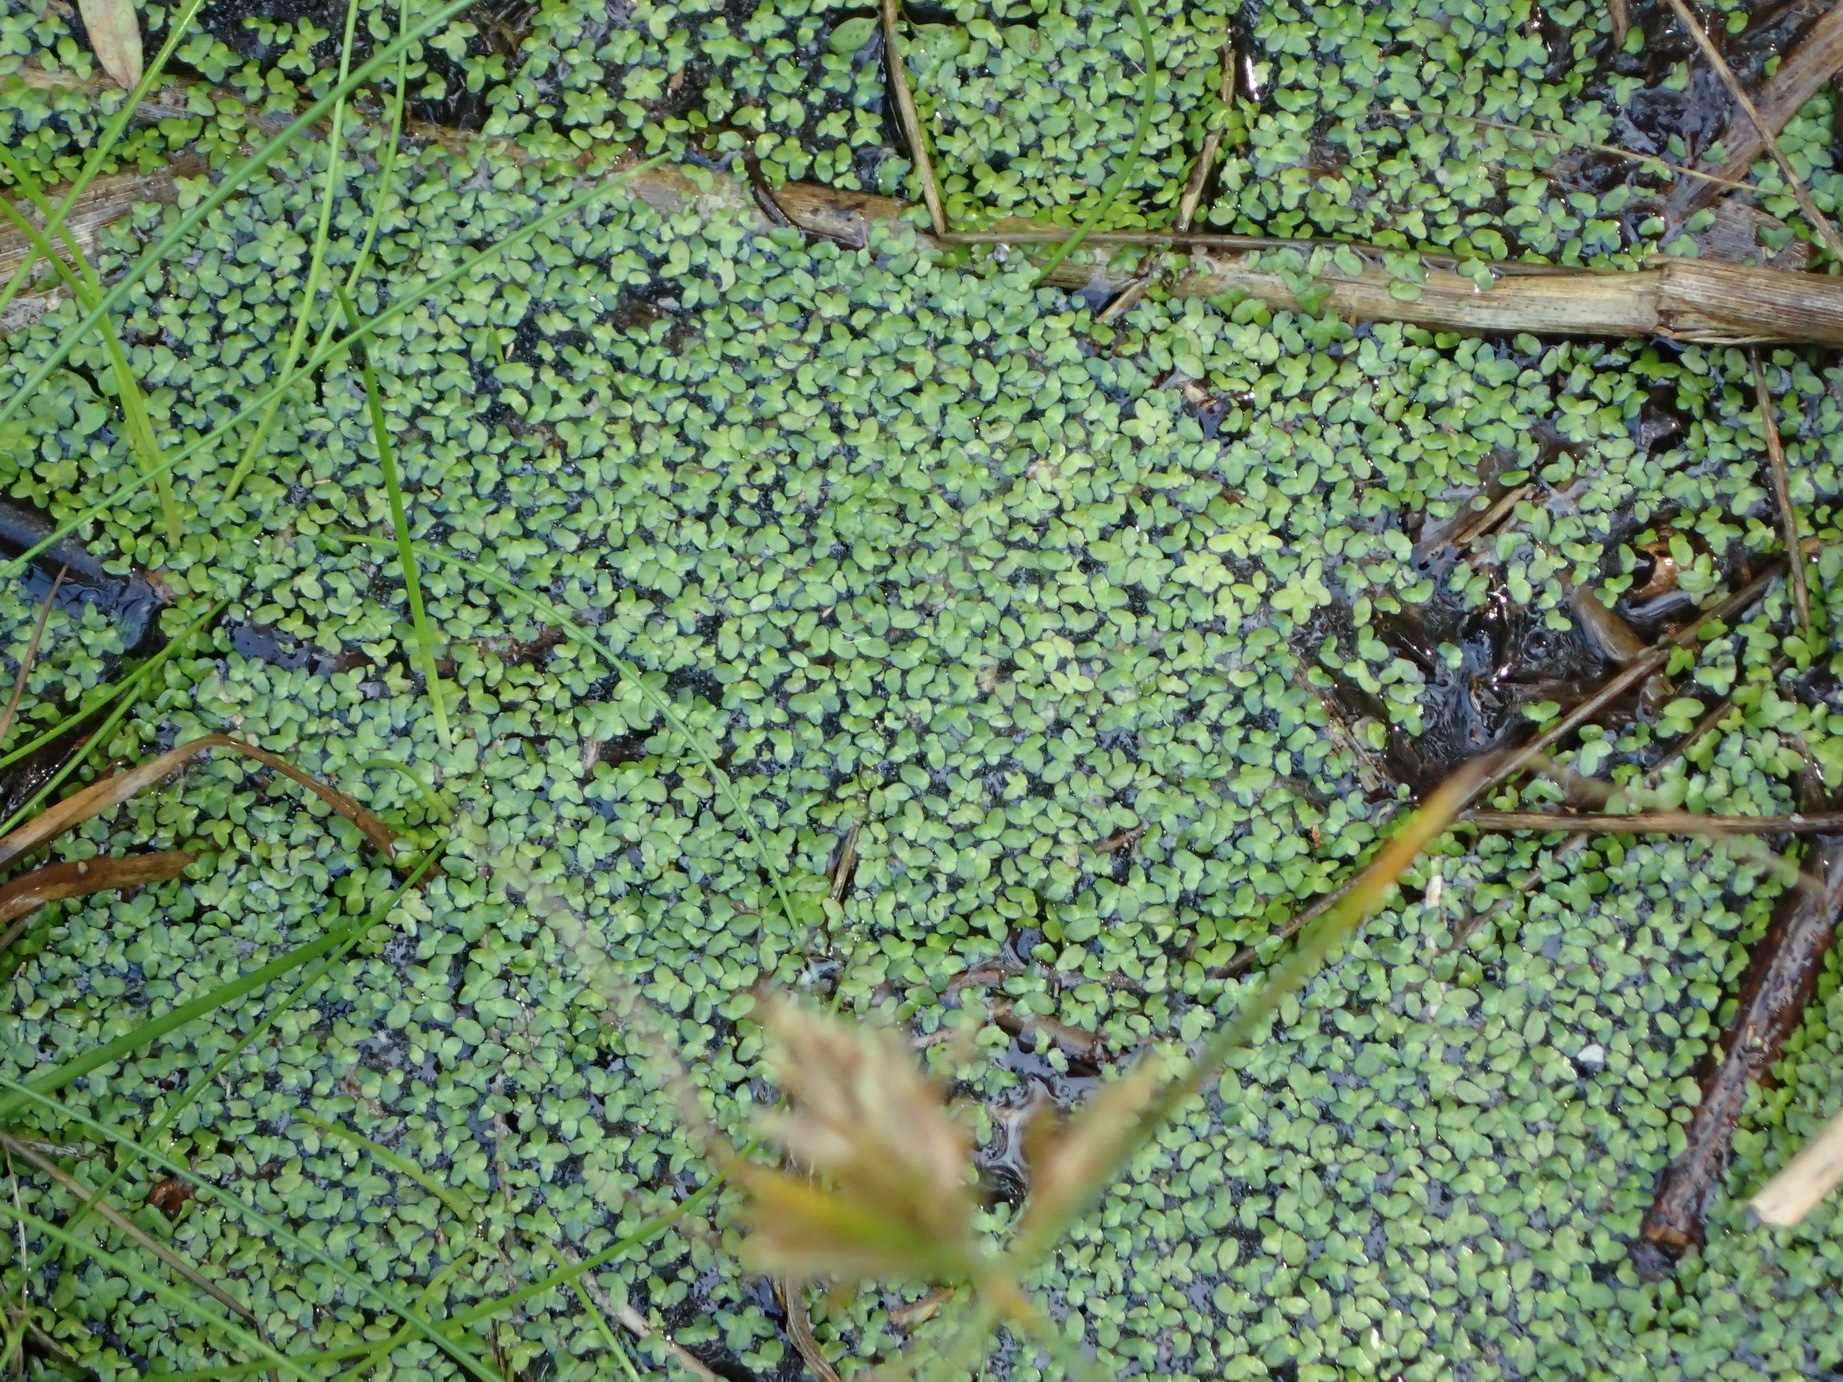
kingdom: Plantae
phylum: Tracheophyta
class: Liliopsida
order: Alismatales
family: Araceae
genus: Lemna
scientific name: Lemna minor
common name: Common duckweed
